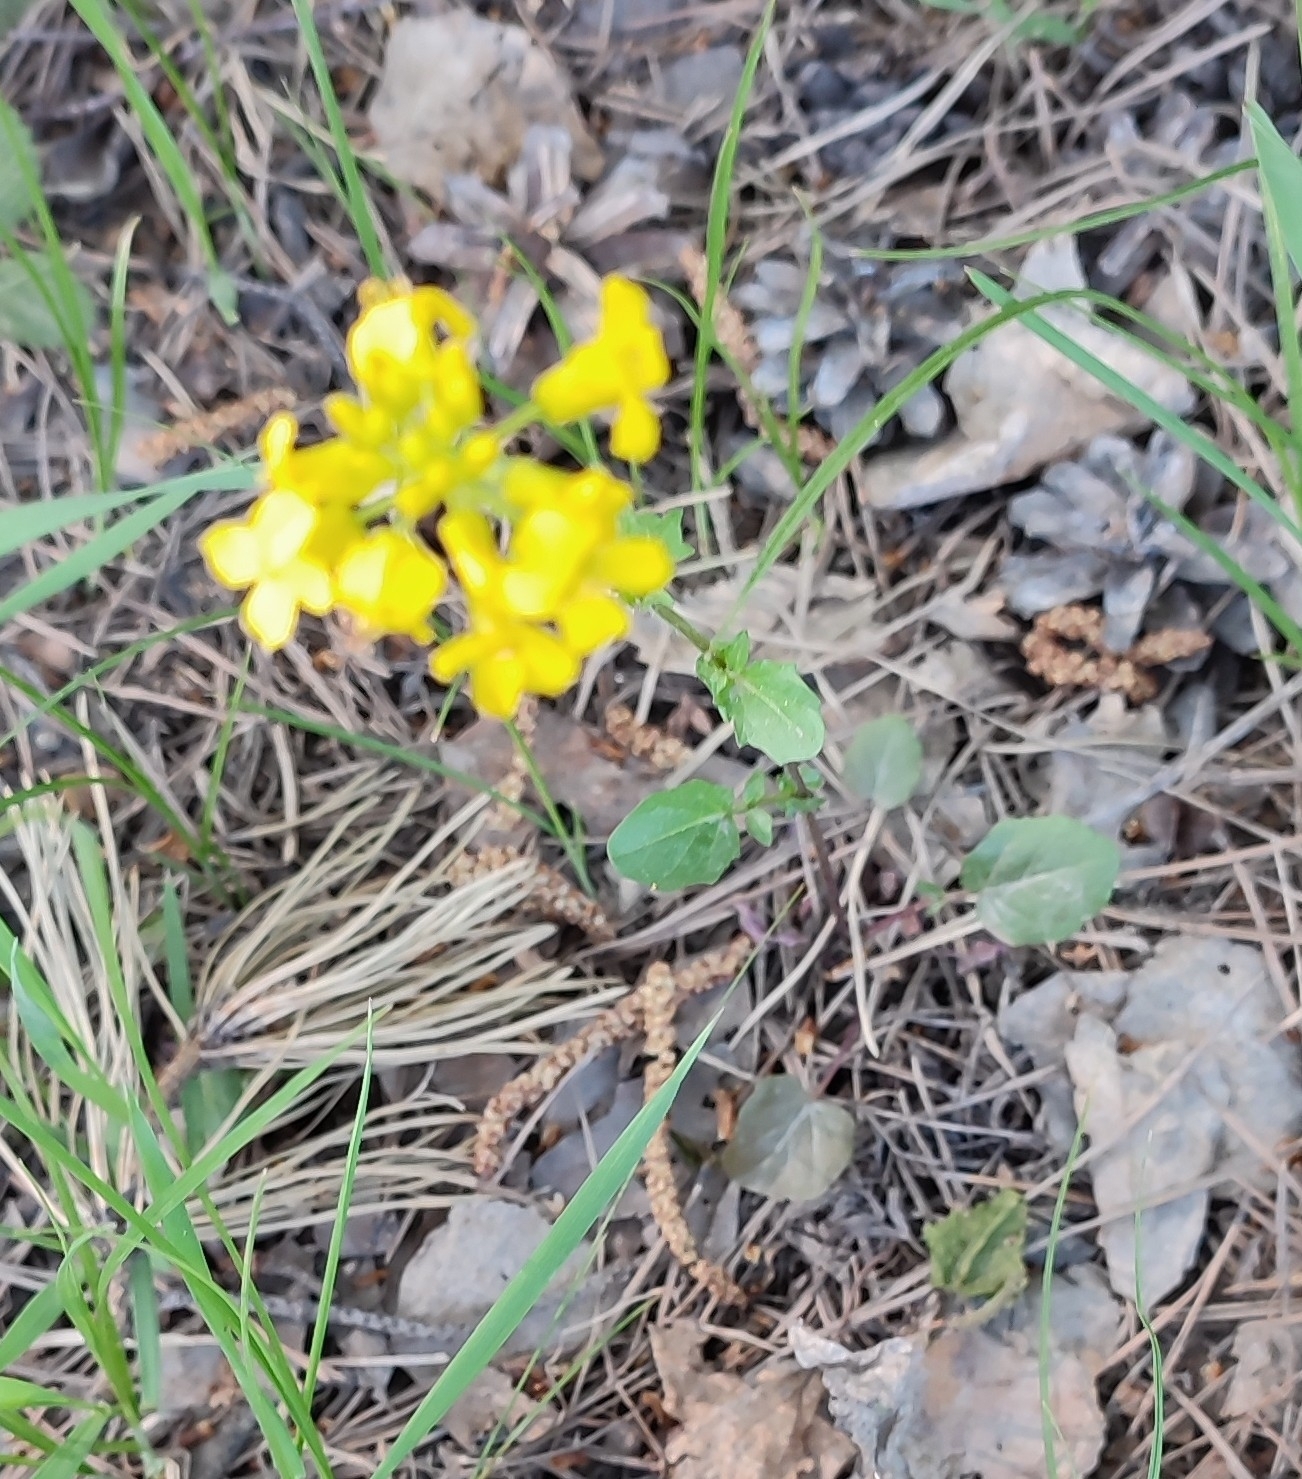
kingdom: Plantae
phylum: Tracheophyta
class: Magnoliopsida
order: Brassicales
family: Brassicaceae
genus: Barbarea
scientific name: Barbarea vulgaris
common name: Cressy-greens
